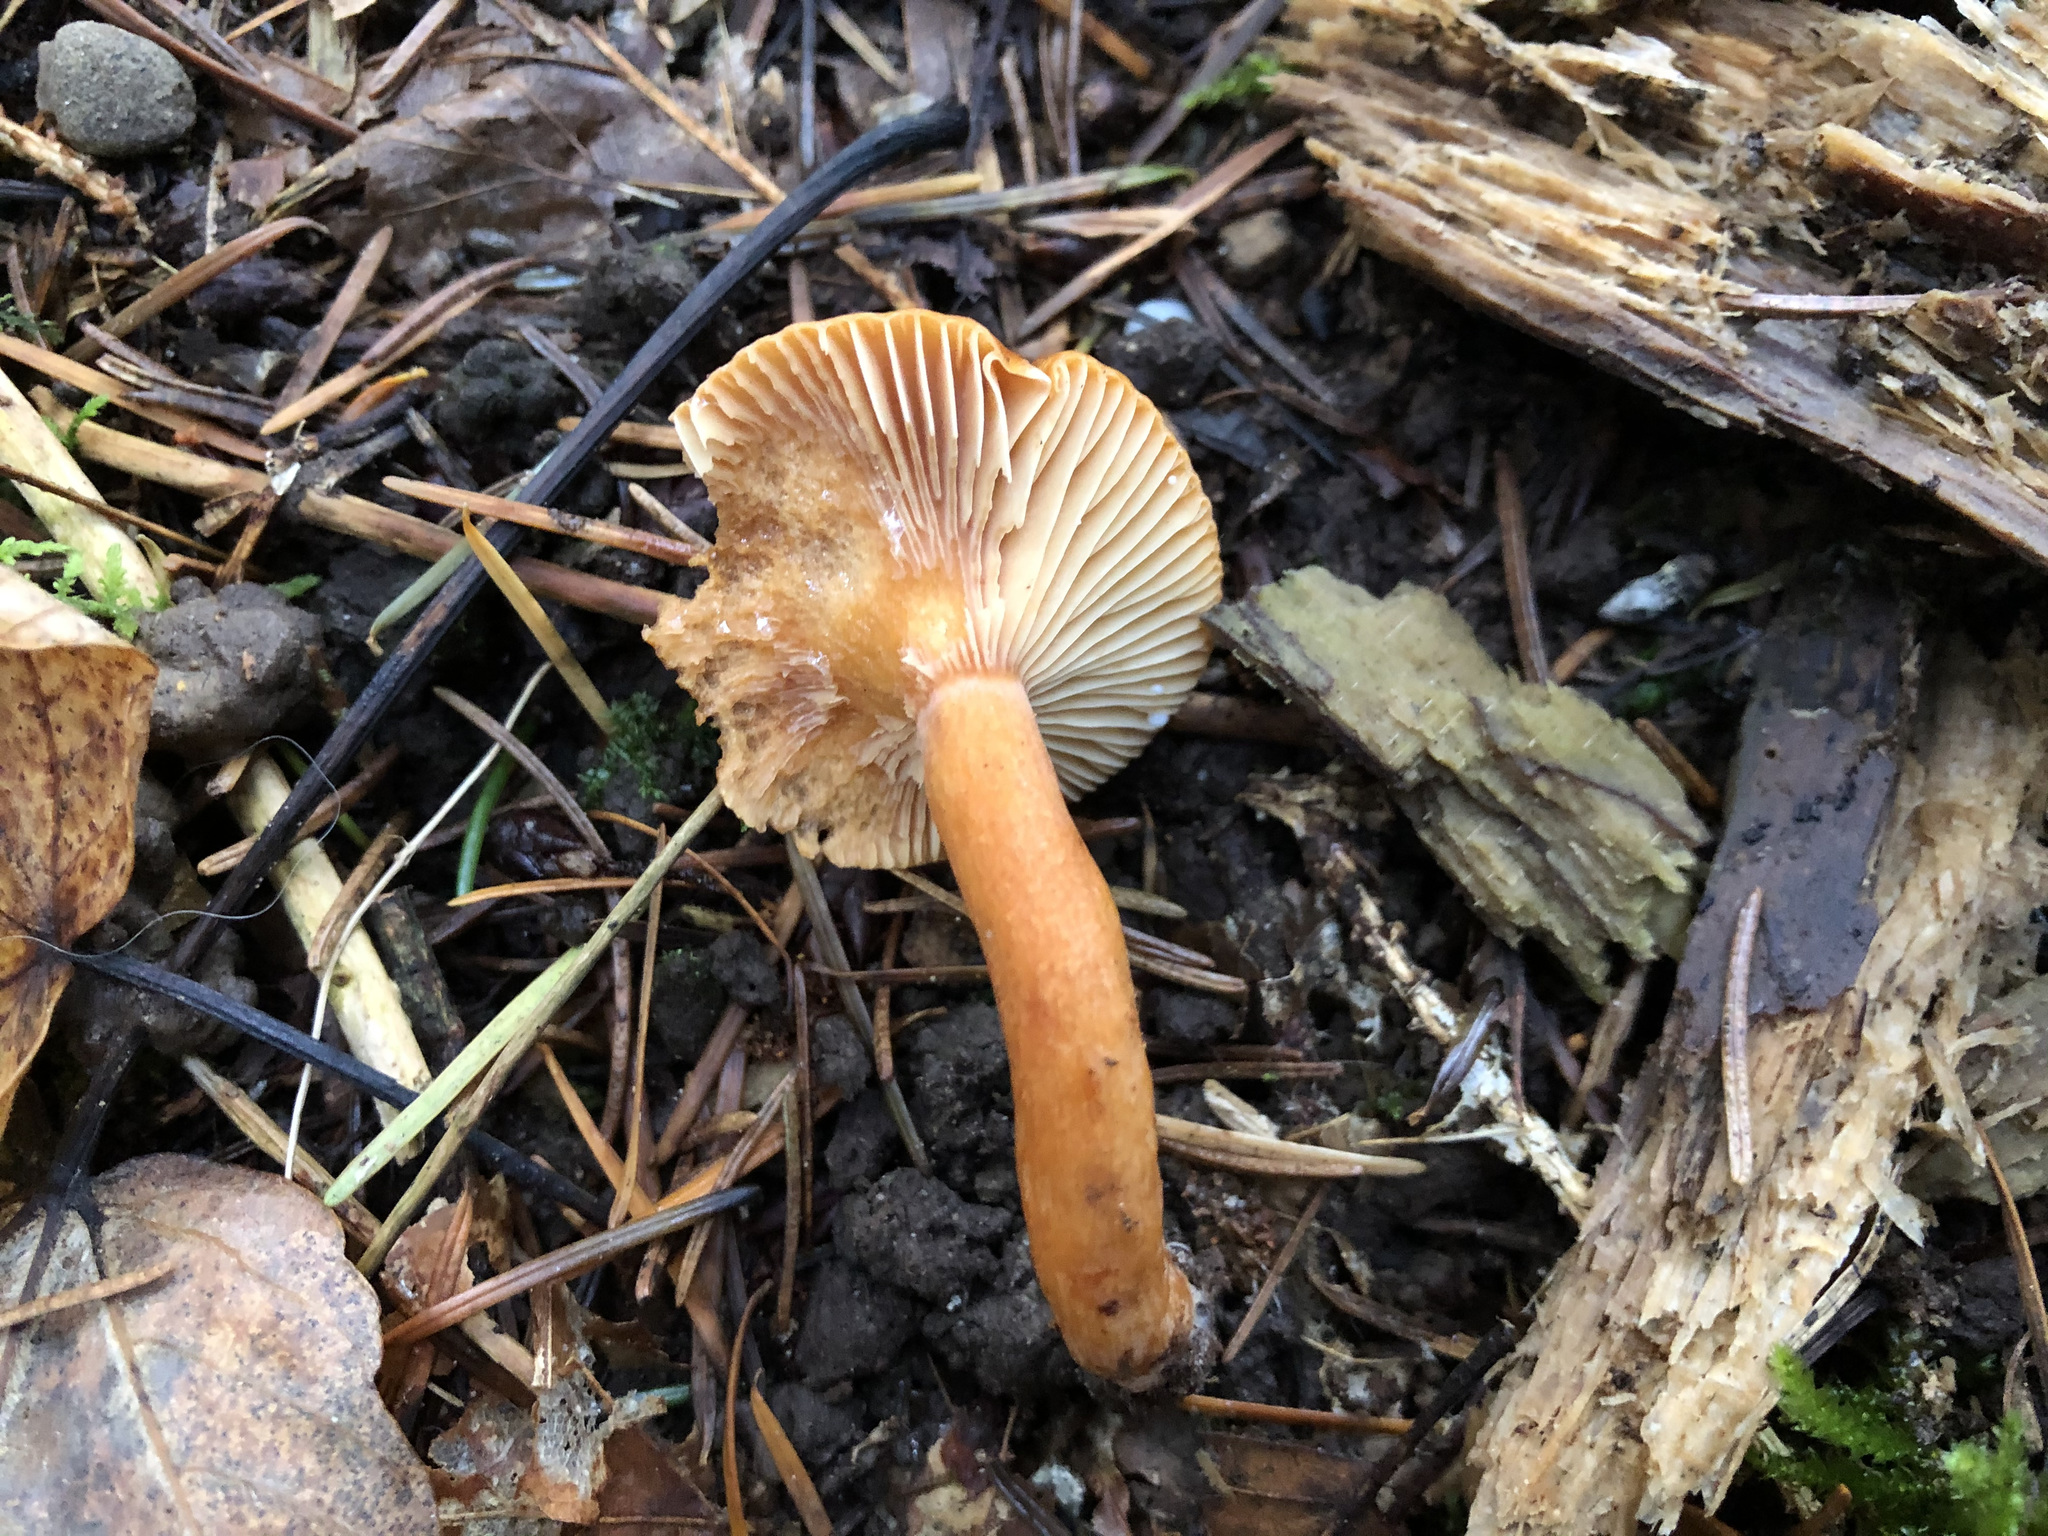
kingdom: Fungi
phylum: Basidiomycota
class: Agaricomycetes
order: Russulales
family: Russulaceae
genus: Lactarius
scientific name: Lactarius aurantiacus
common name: Orange milkcap
